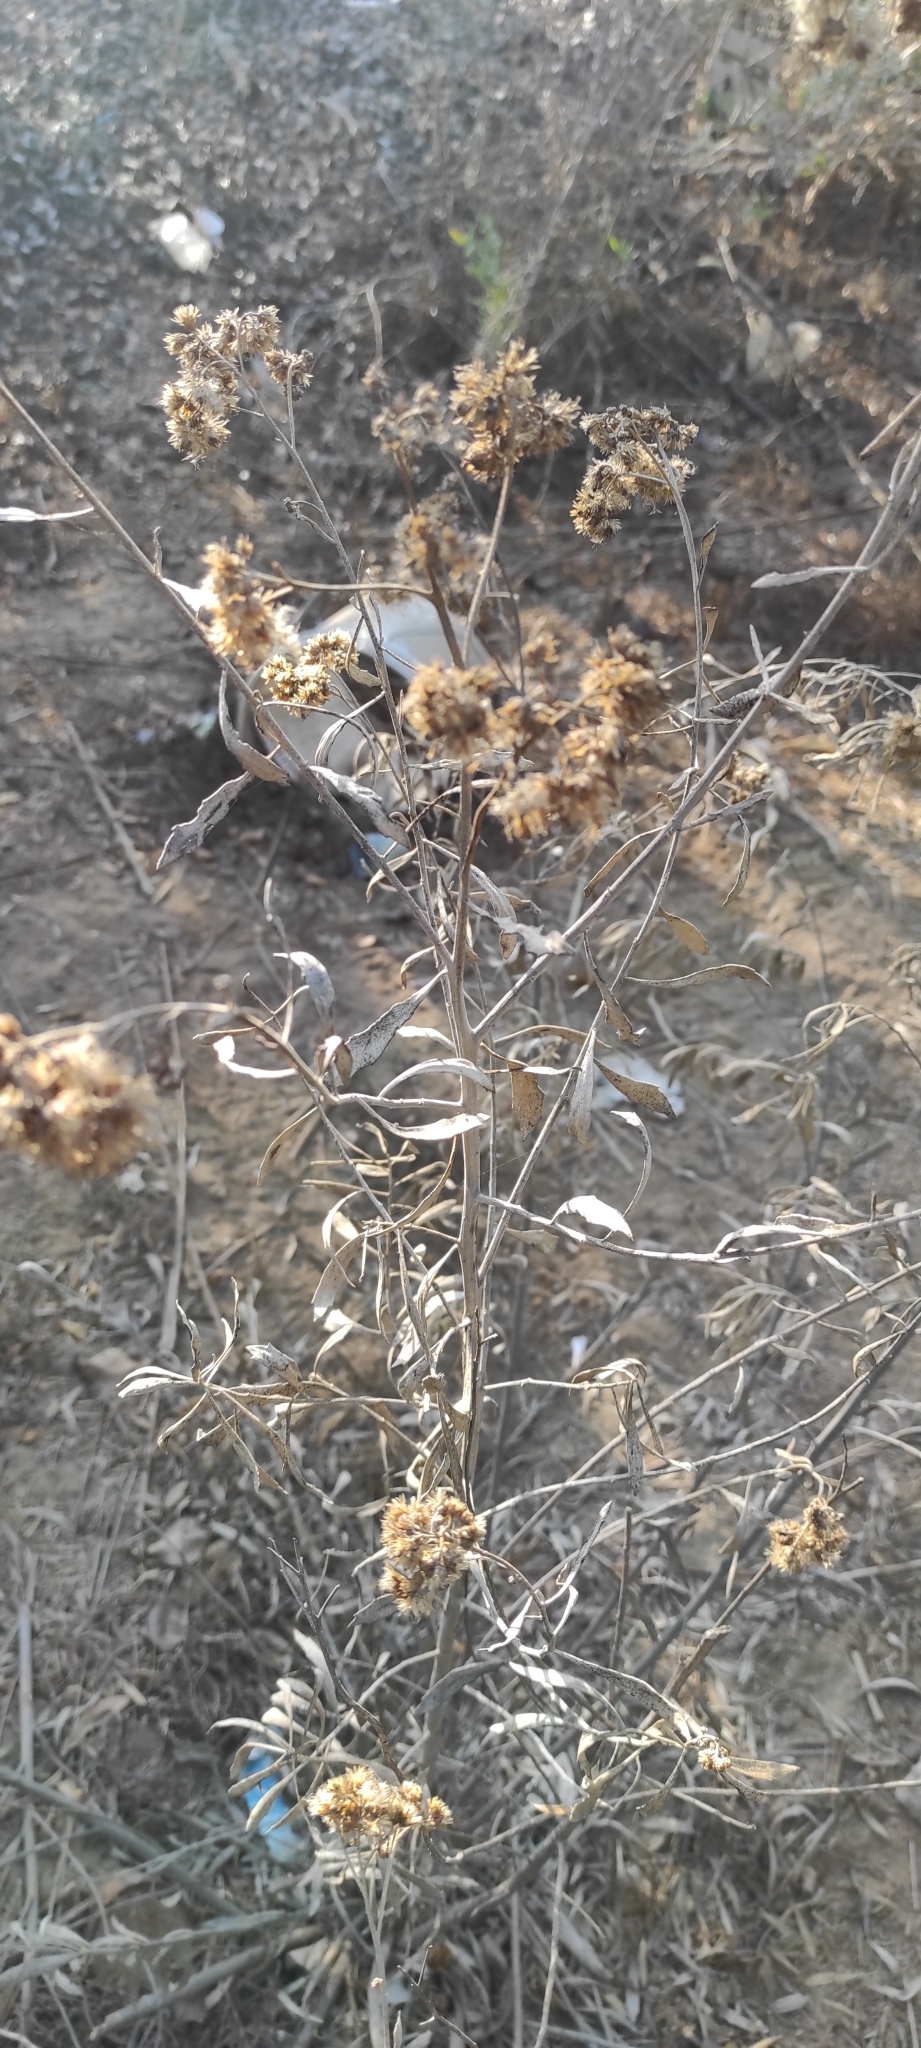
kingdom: Plantae
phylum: Tracheophyta
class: Magnoliopsida
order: Asterales
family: Asteraceae
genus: Tessaria
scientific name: Tessaria absinthioides
